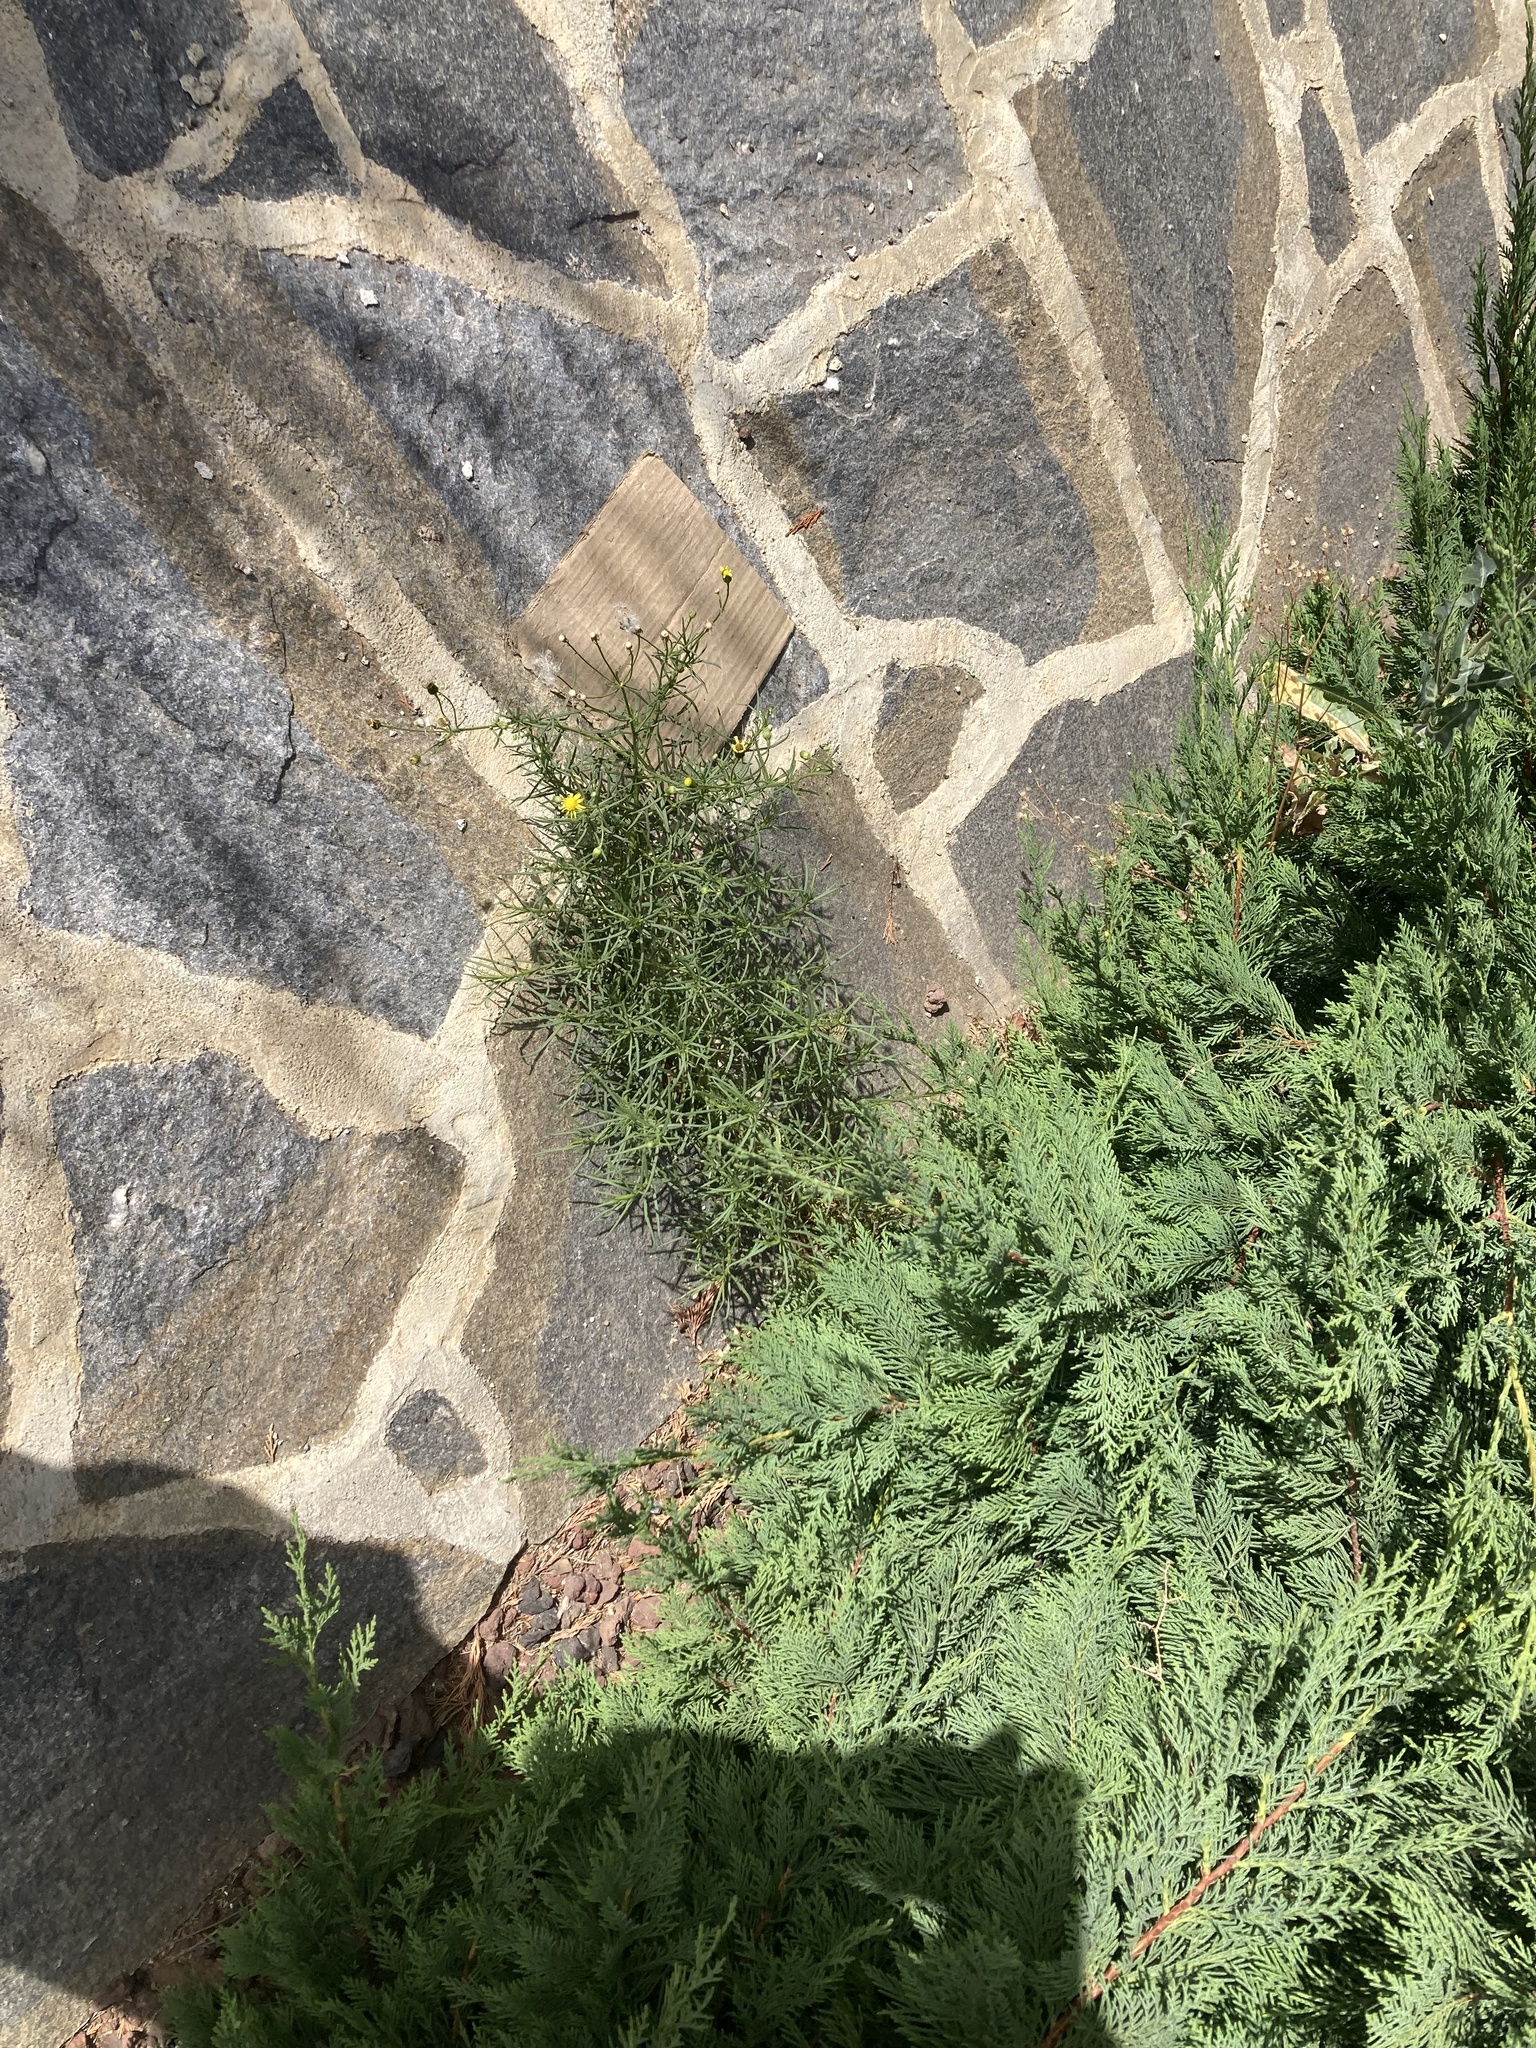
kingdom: Plantae
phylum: Tracheophyta
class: Magnoliopsida
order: Asterales
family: Asteraceae
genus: Senecio
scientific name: Senecio inaequidens
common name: Narrow-leaved ragwort
